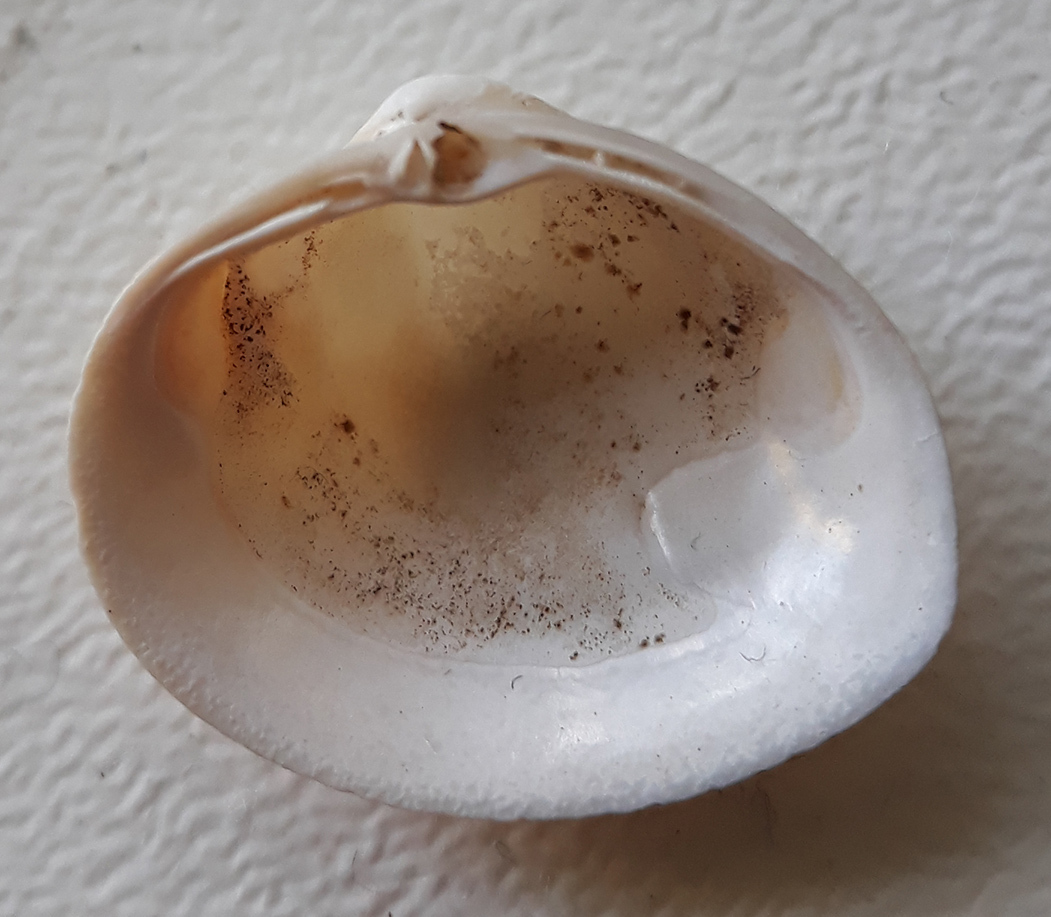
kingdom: Animalia
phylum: Mollusca
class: Bivalvia
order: Venerida
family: Mactridae
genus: Rangia
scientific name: Rangia cuneata
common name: Atlantic rangia
